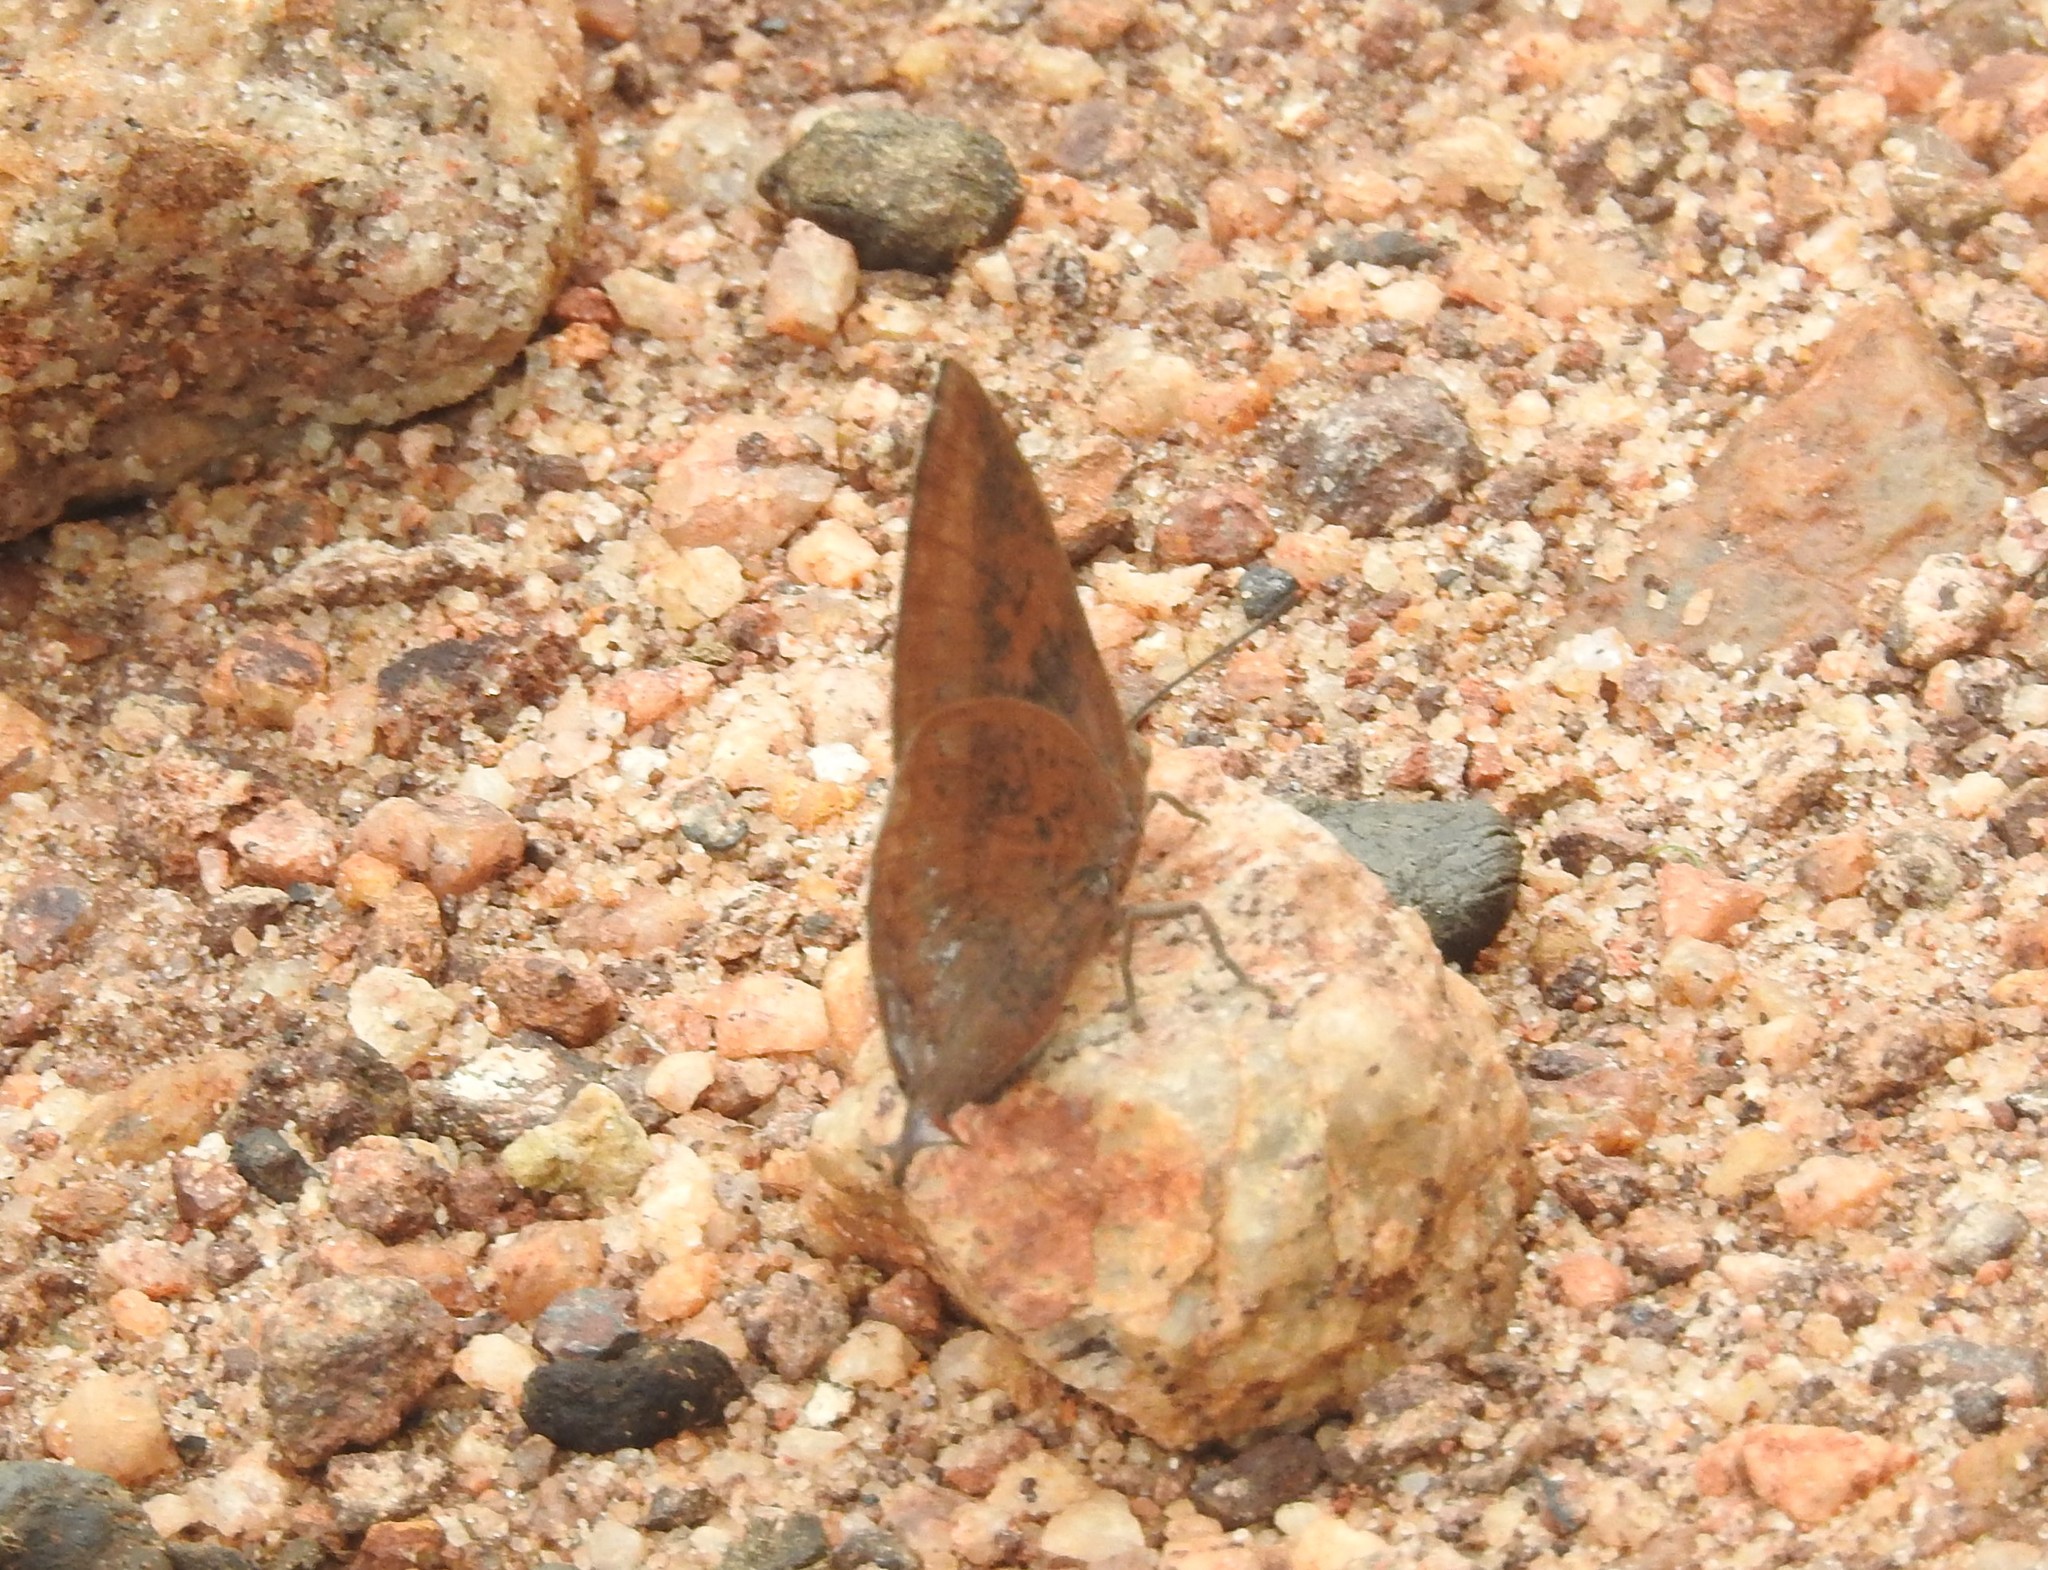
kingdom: Animalia
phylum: Arthropoda
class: Insecta
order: Lepidoptera
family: Lycaenidae
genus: Amblypodia
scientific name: Amblypodia anita
